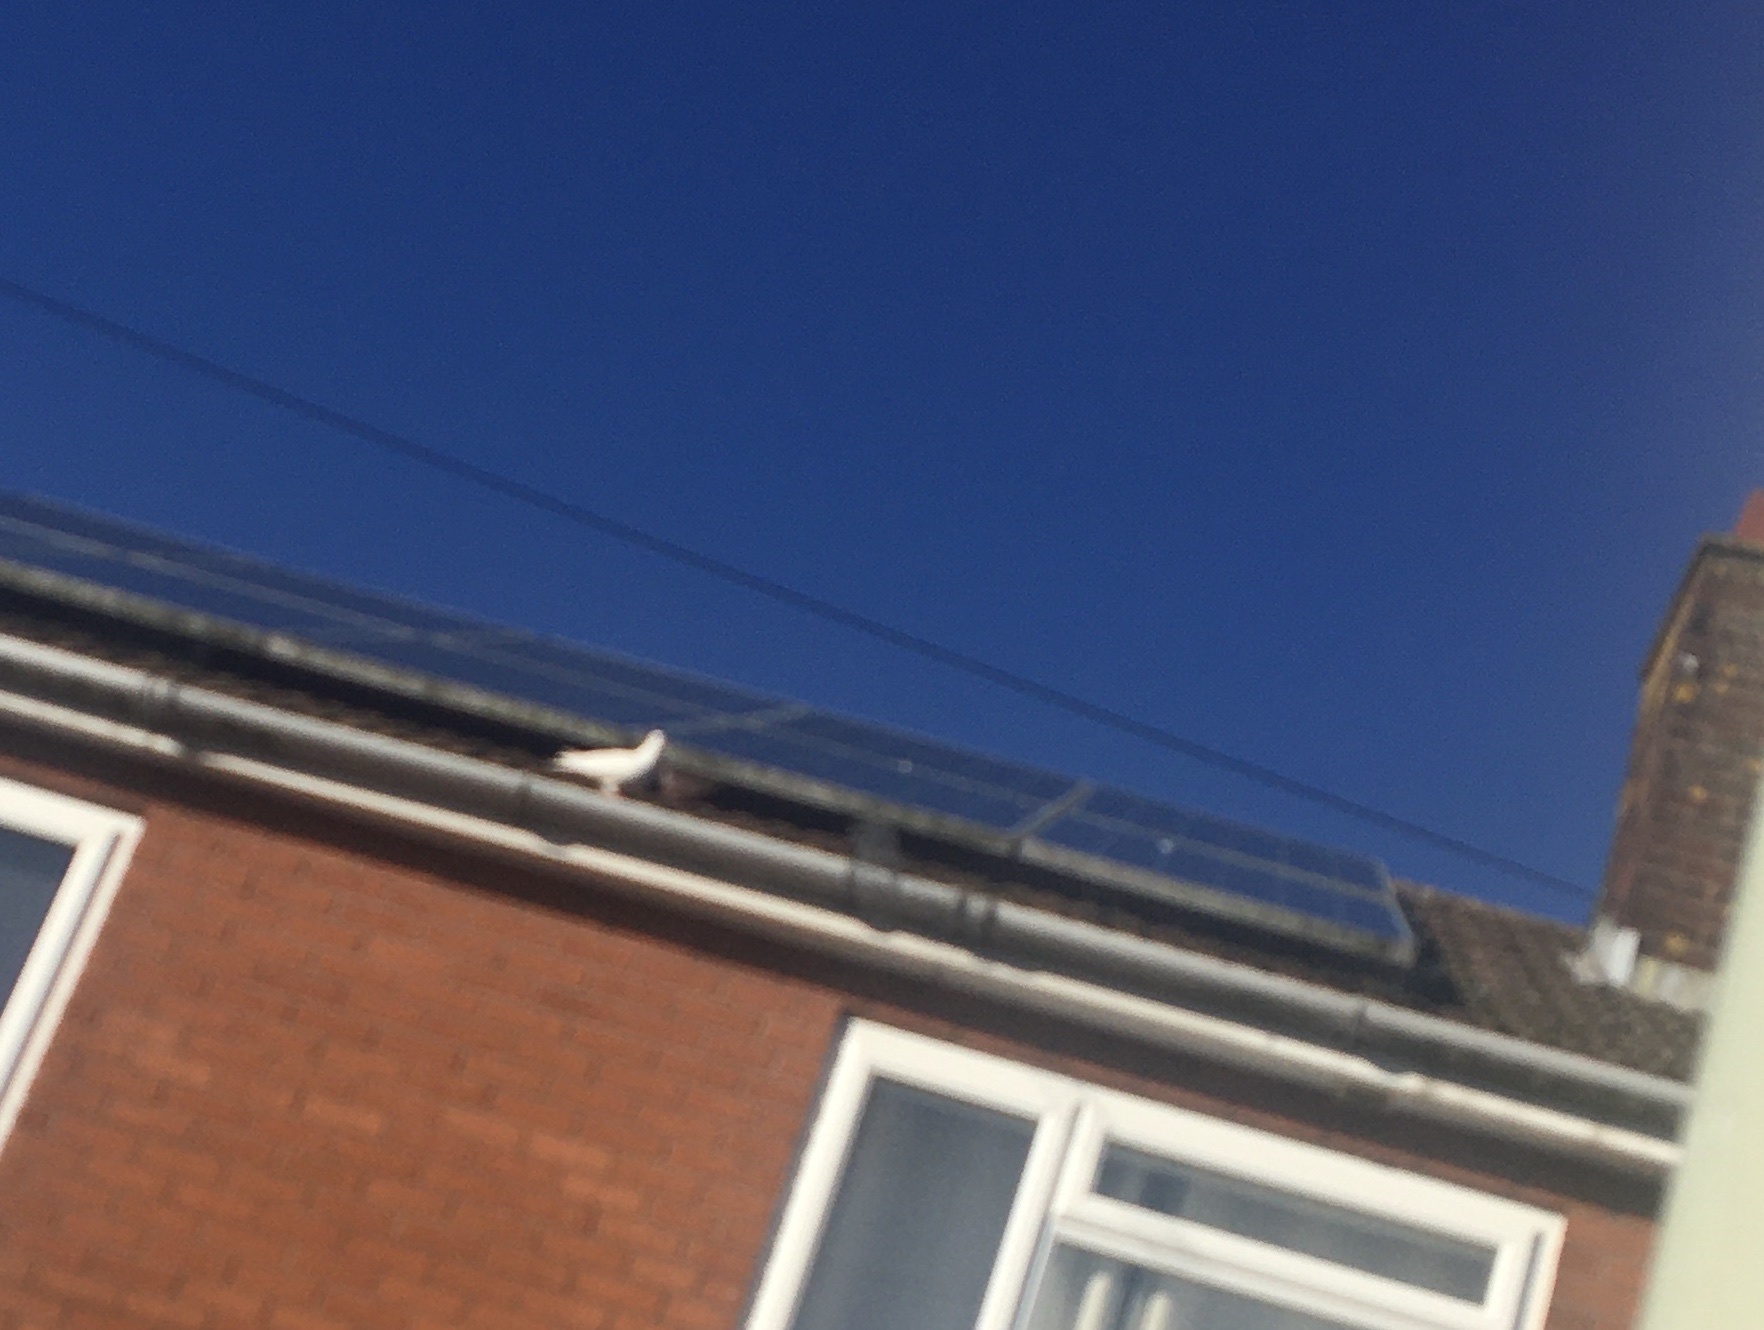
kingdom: Animalia
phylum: Chordata
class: Aves
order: Columbiformes
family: Columbidae
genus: Columba
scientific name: Columba livia
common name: Rock pigeon
